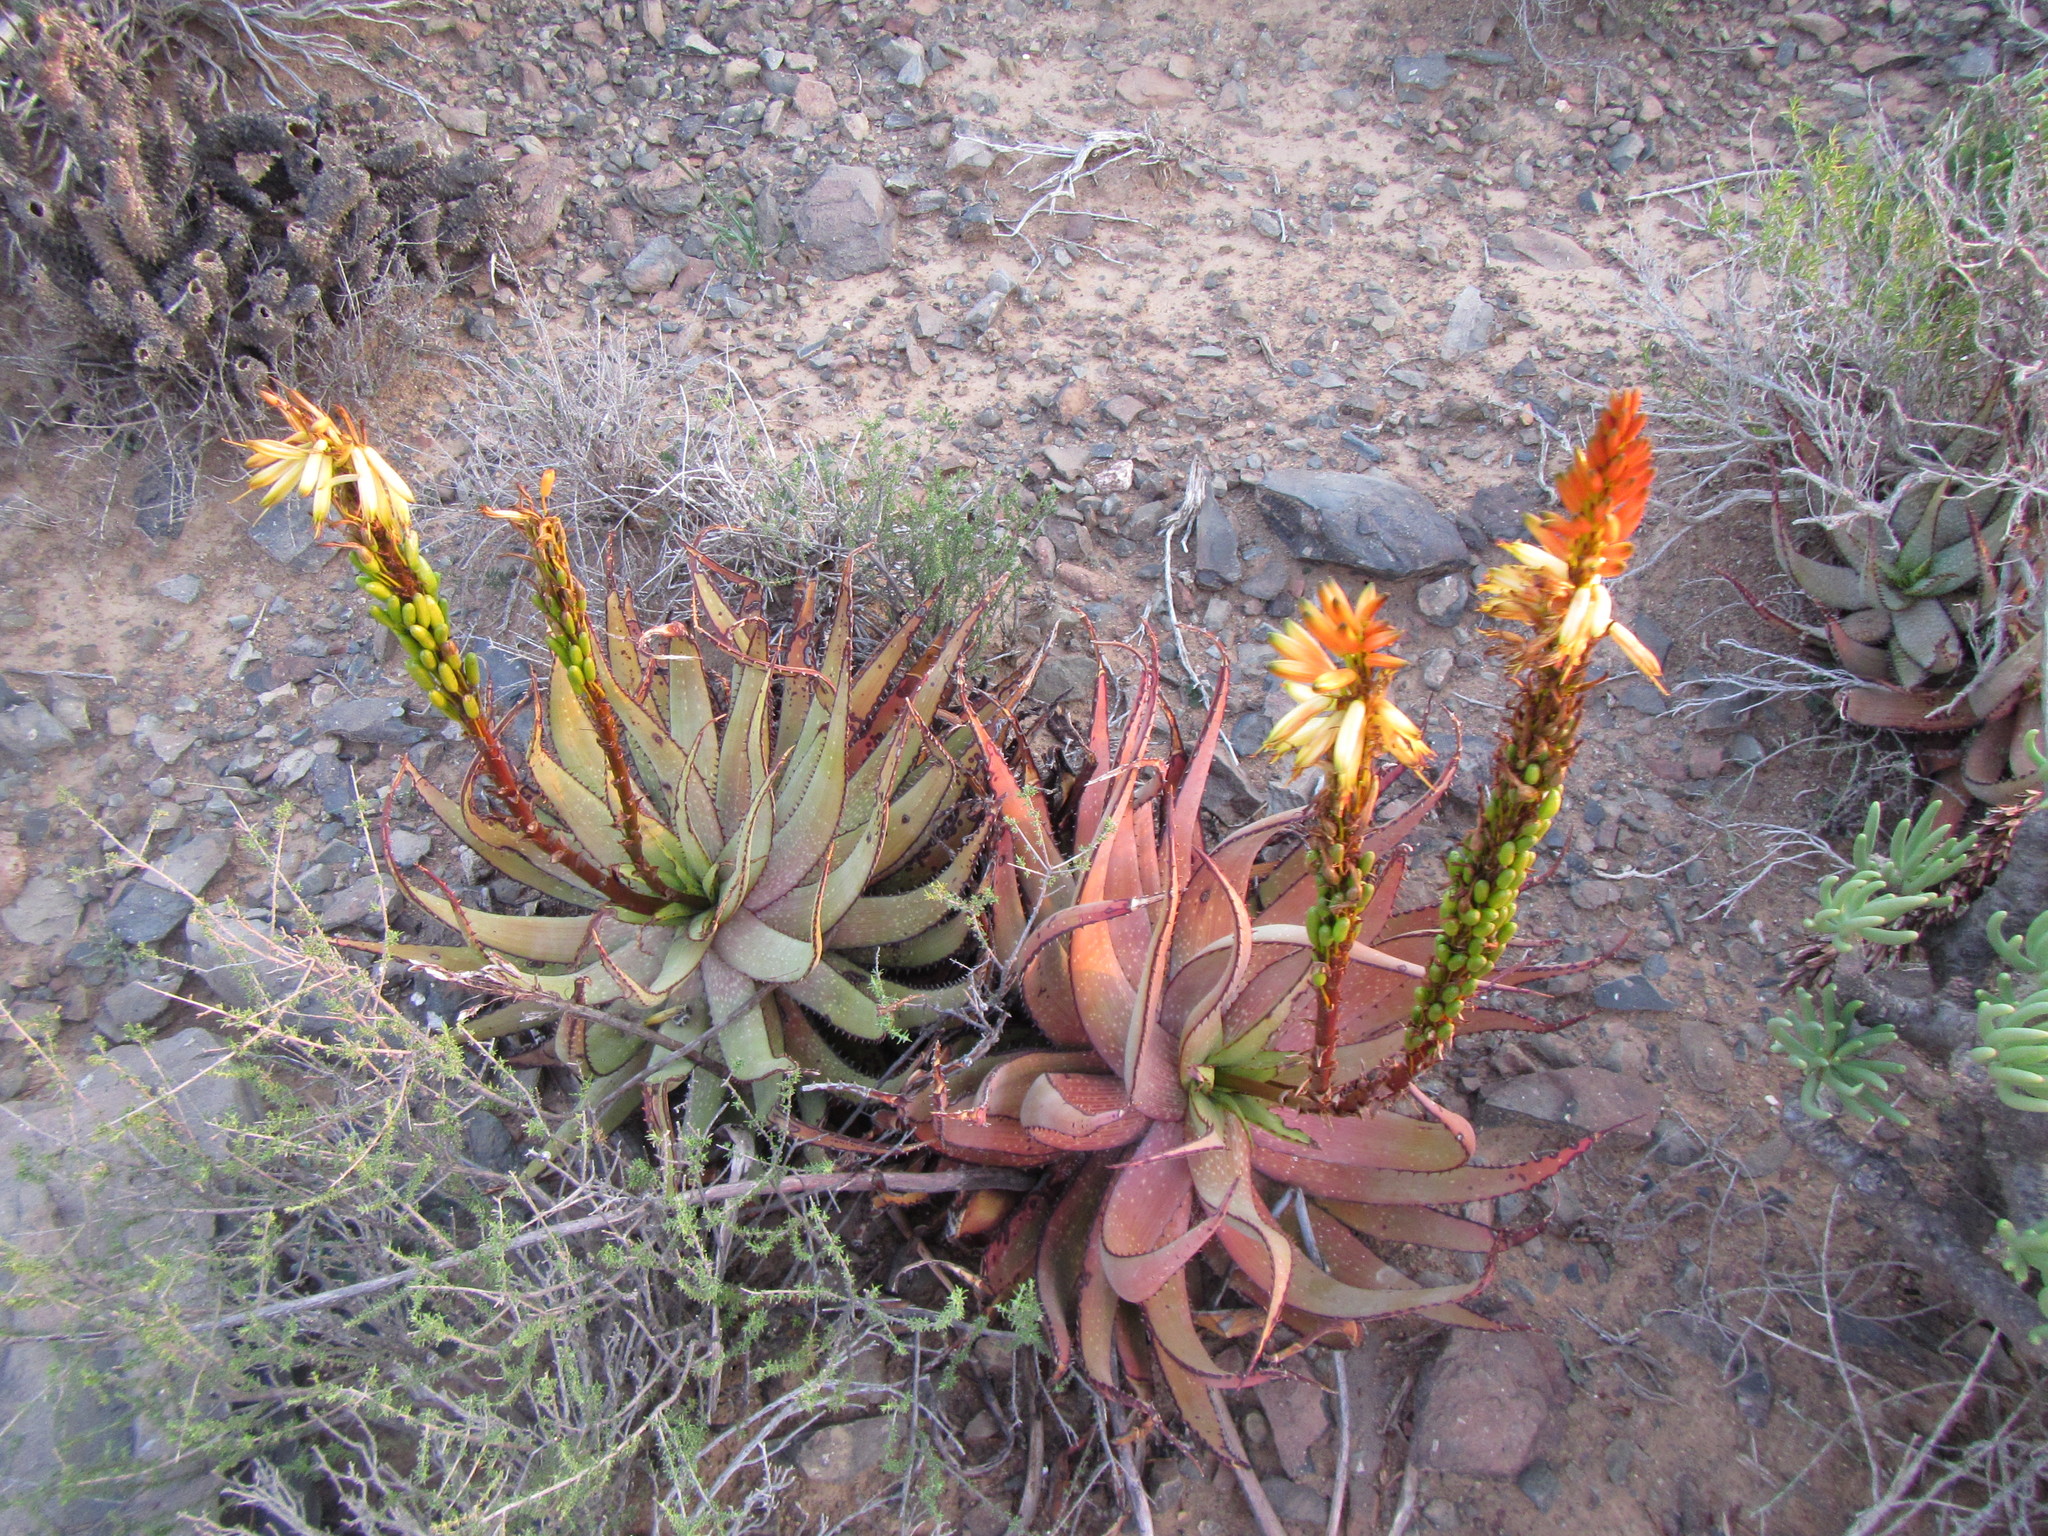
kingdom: Plantae
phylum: Tracheophyta
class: Liliopsida
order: Asparagales
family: Asphodelaceae
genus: Aloe
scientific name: Aloe microstigma
